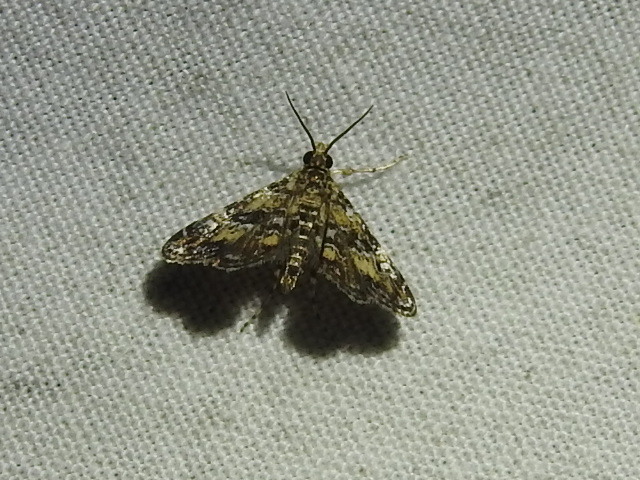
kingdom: Animalia
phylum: Arthropoda
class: Insecta
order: Lepidoptera
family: Crambidae
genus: Elophila
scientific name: Elophila obliteralis
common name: Waterlily leafcutter moth
